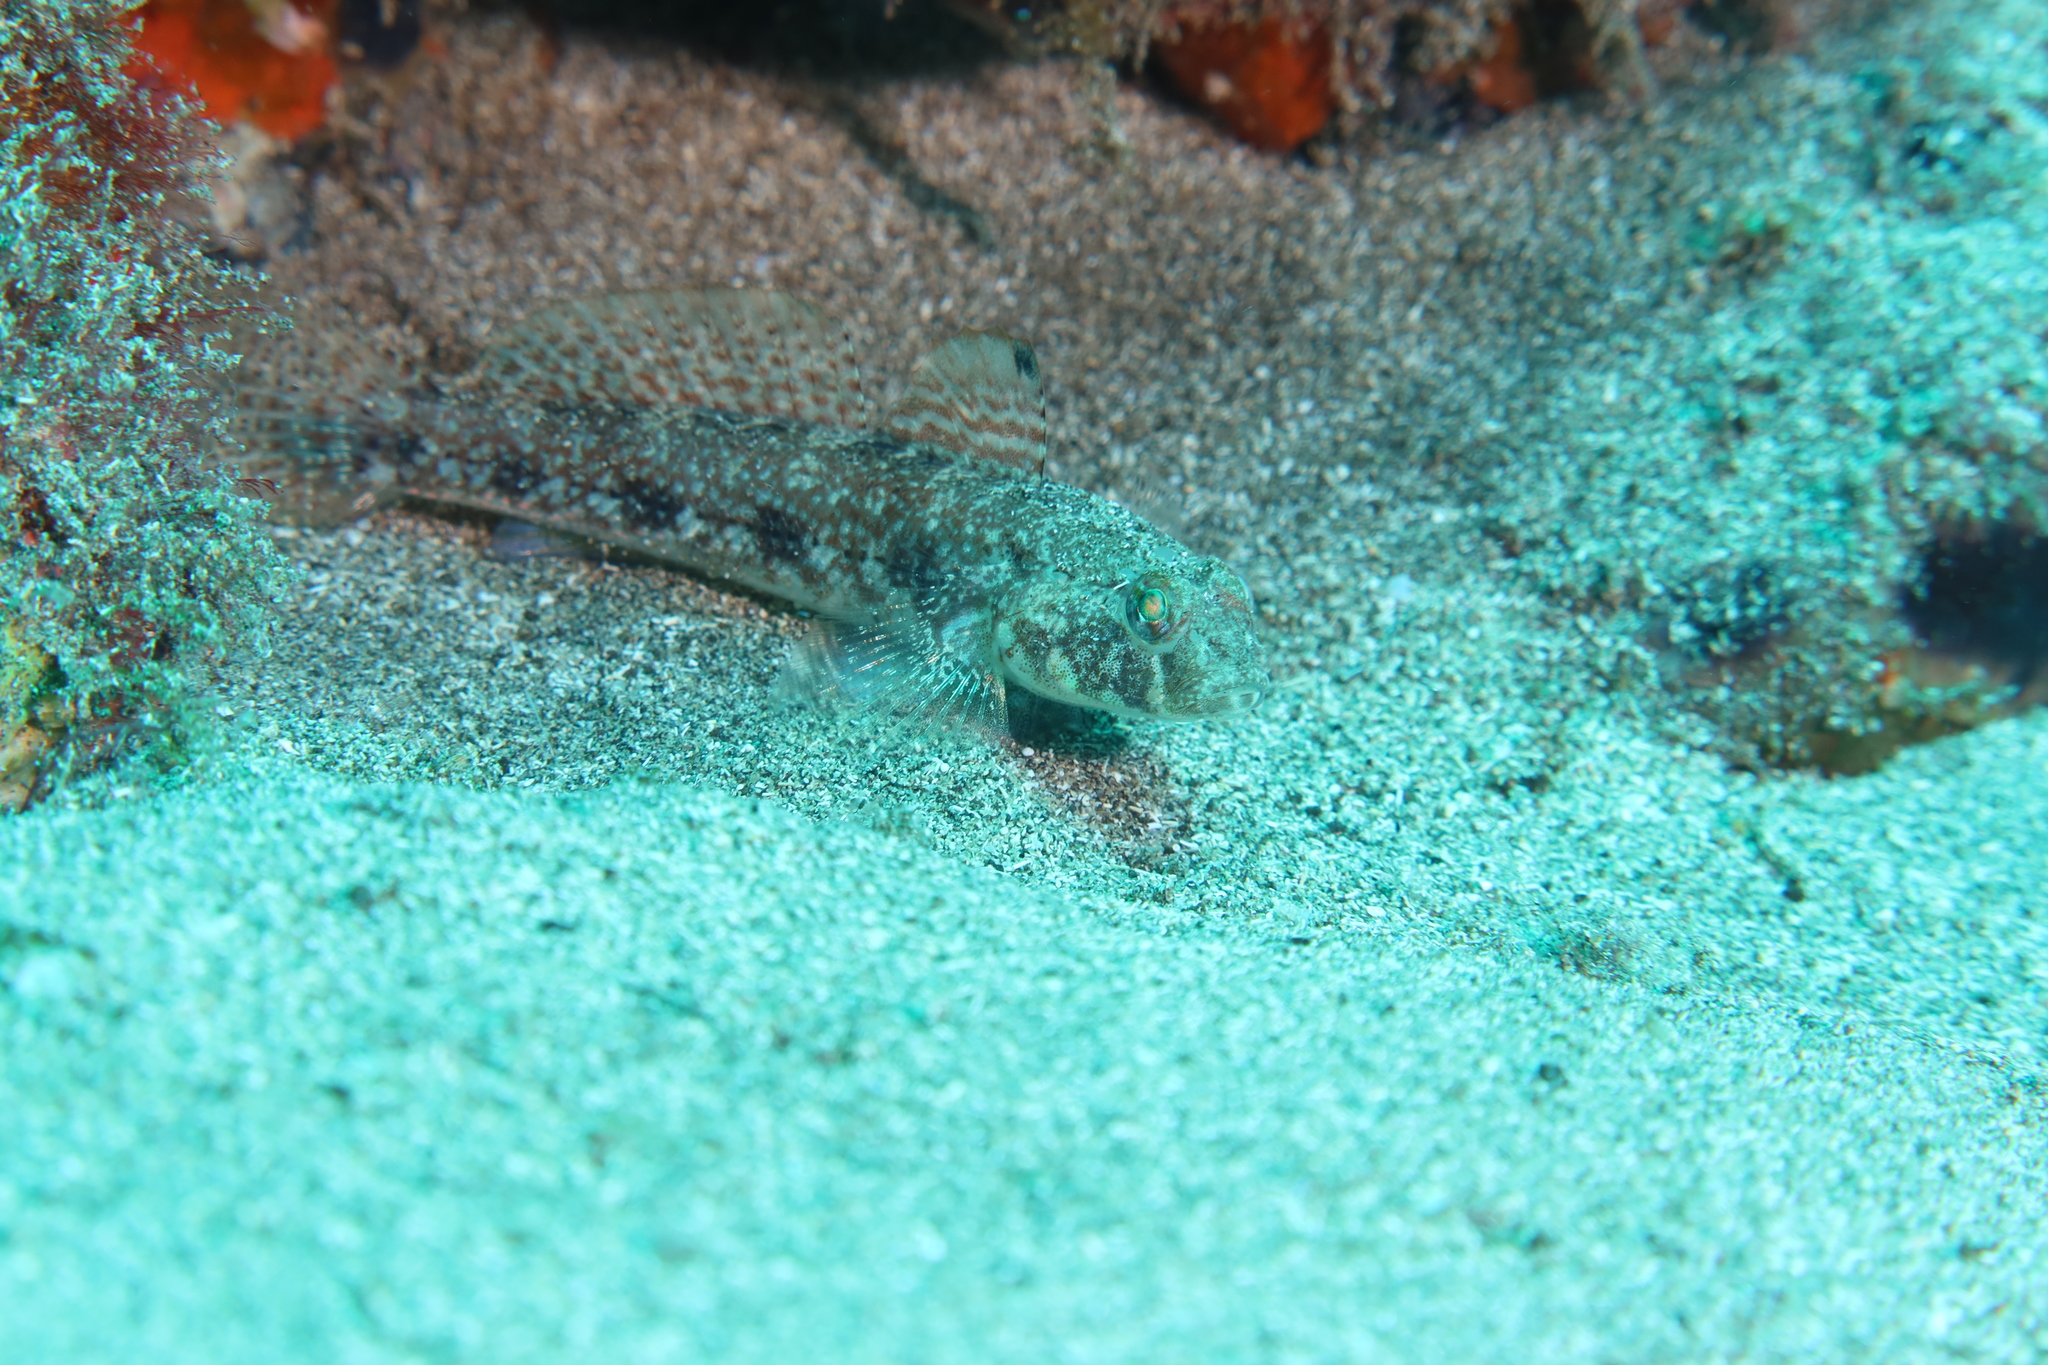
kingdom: Animalia
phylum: Chordata
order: Perciformes
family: Gobiidae
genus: Gobius
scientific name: Gobius niger
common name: Black goby
